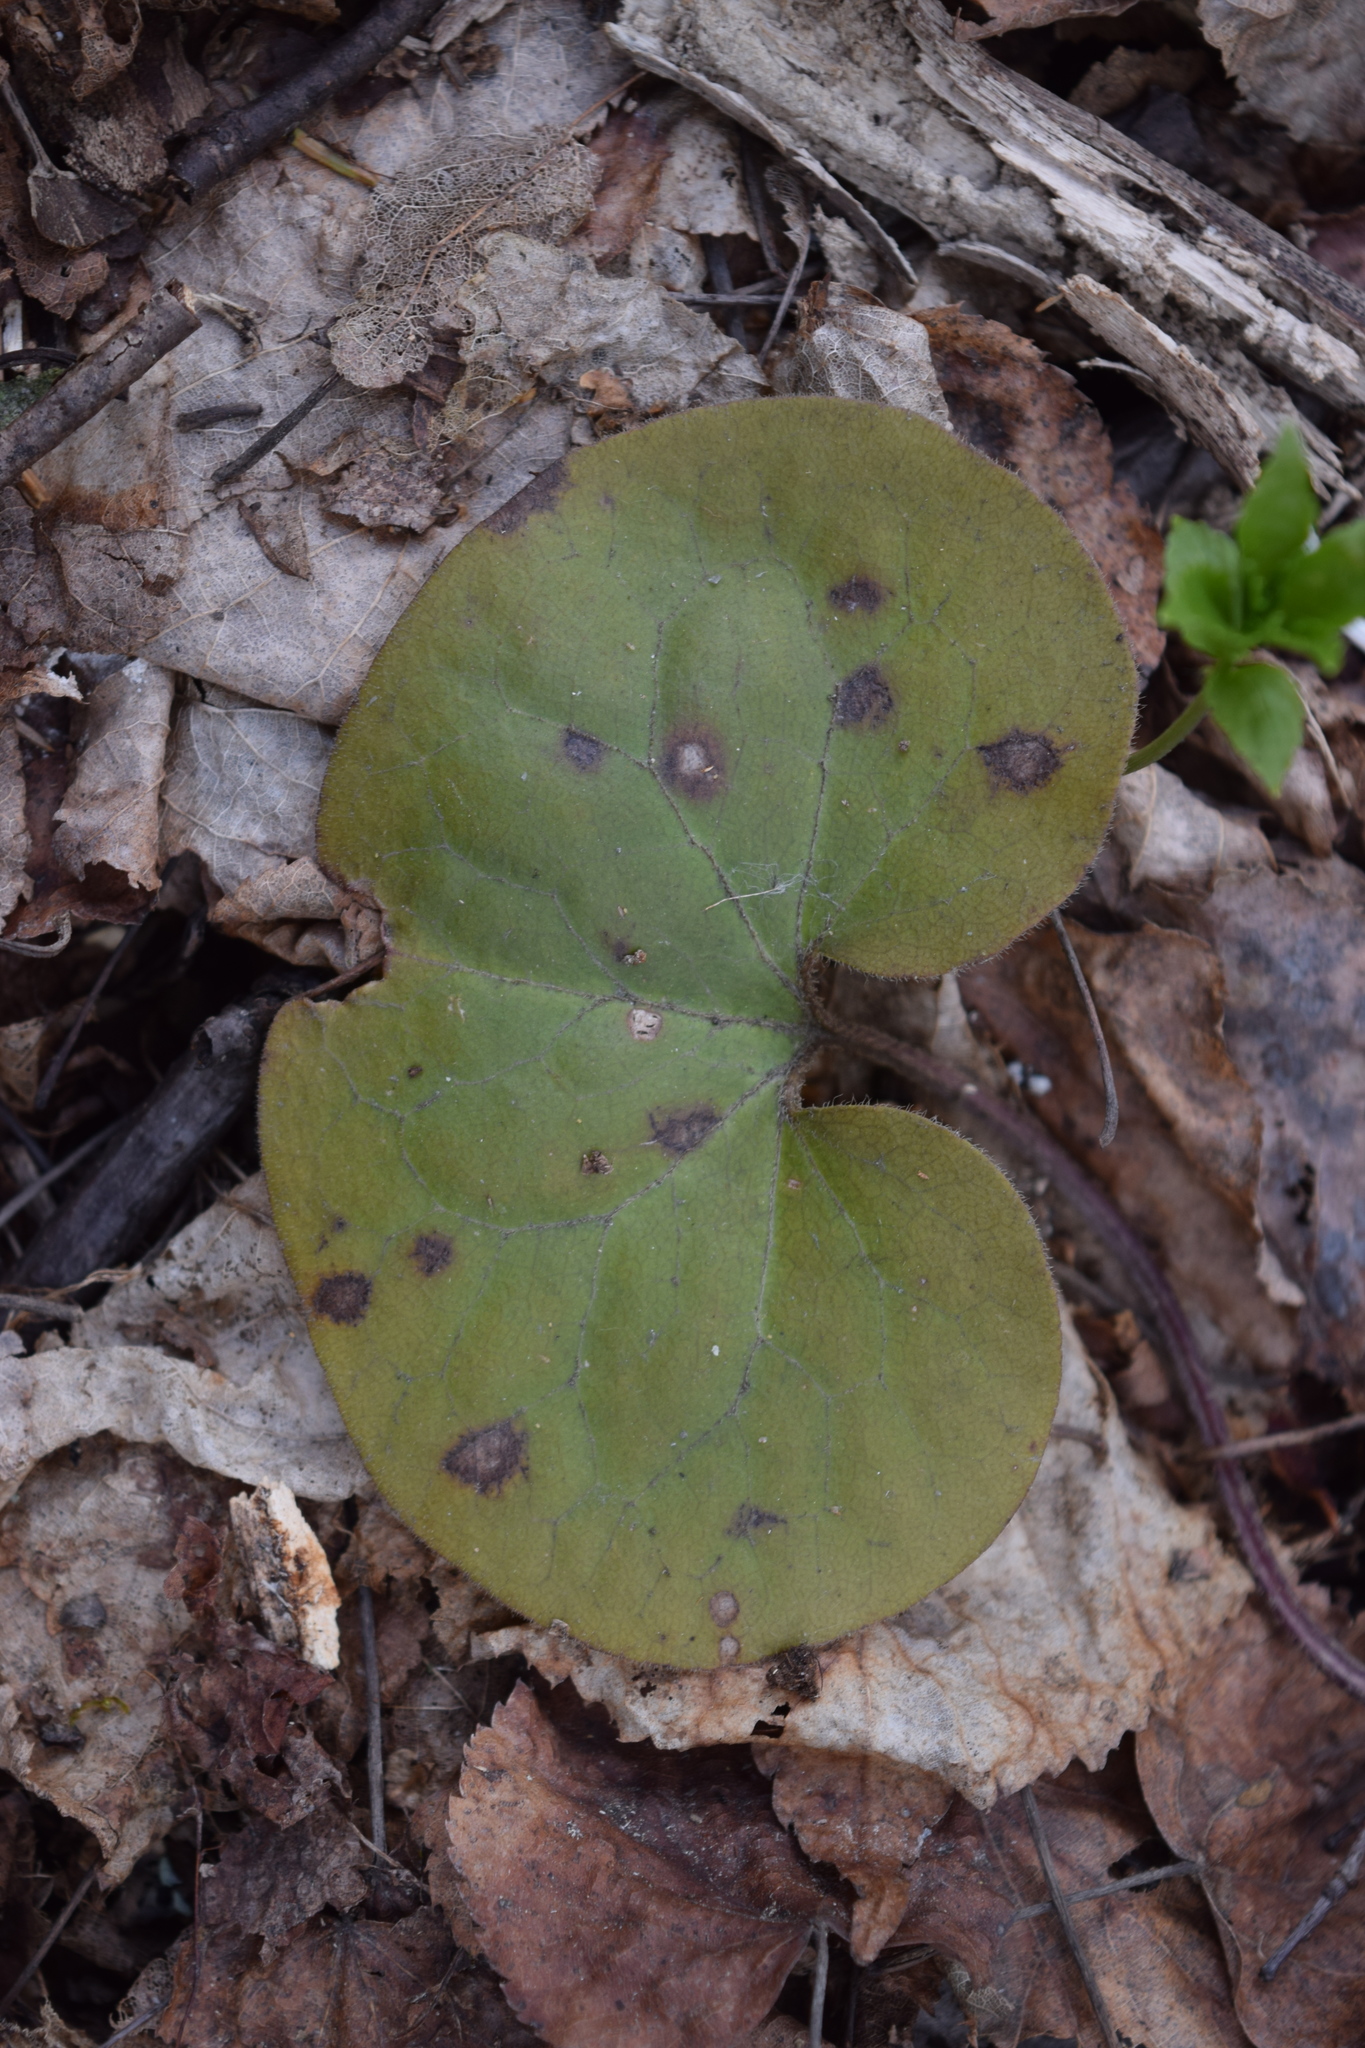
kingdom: Plantae
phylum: Tracheophyta
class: Magnoliopsida
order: Piperales
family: Aristolochiaceae
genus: Asarum
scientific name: Asarum europaeum
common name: Asarabacca
